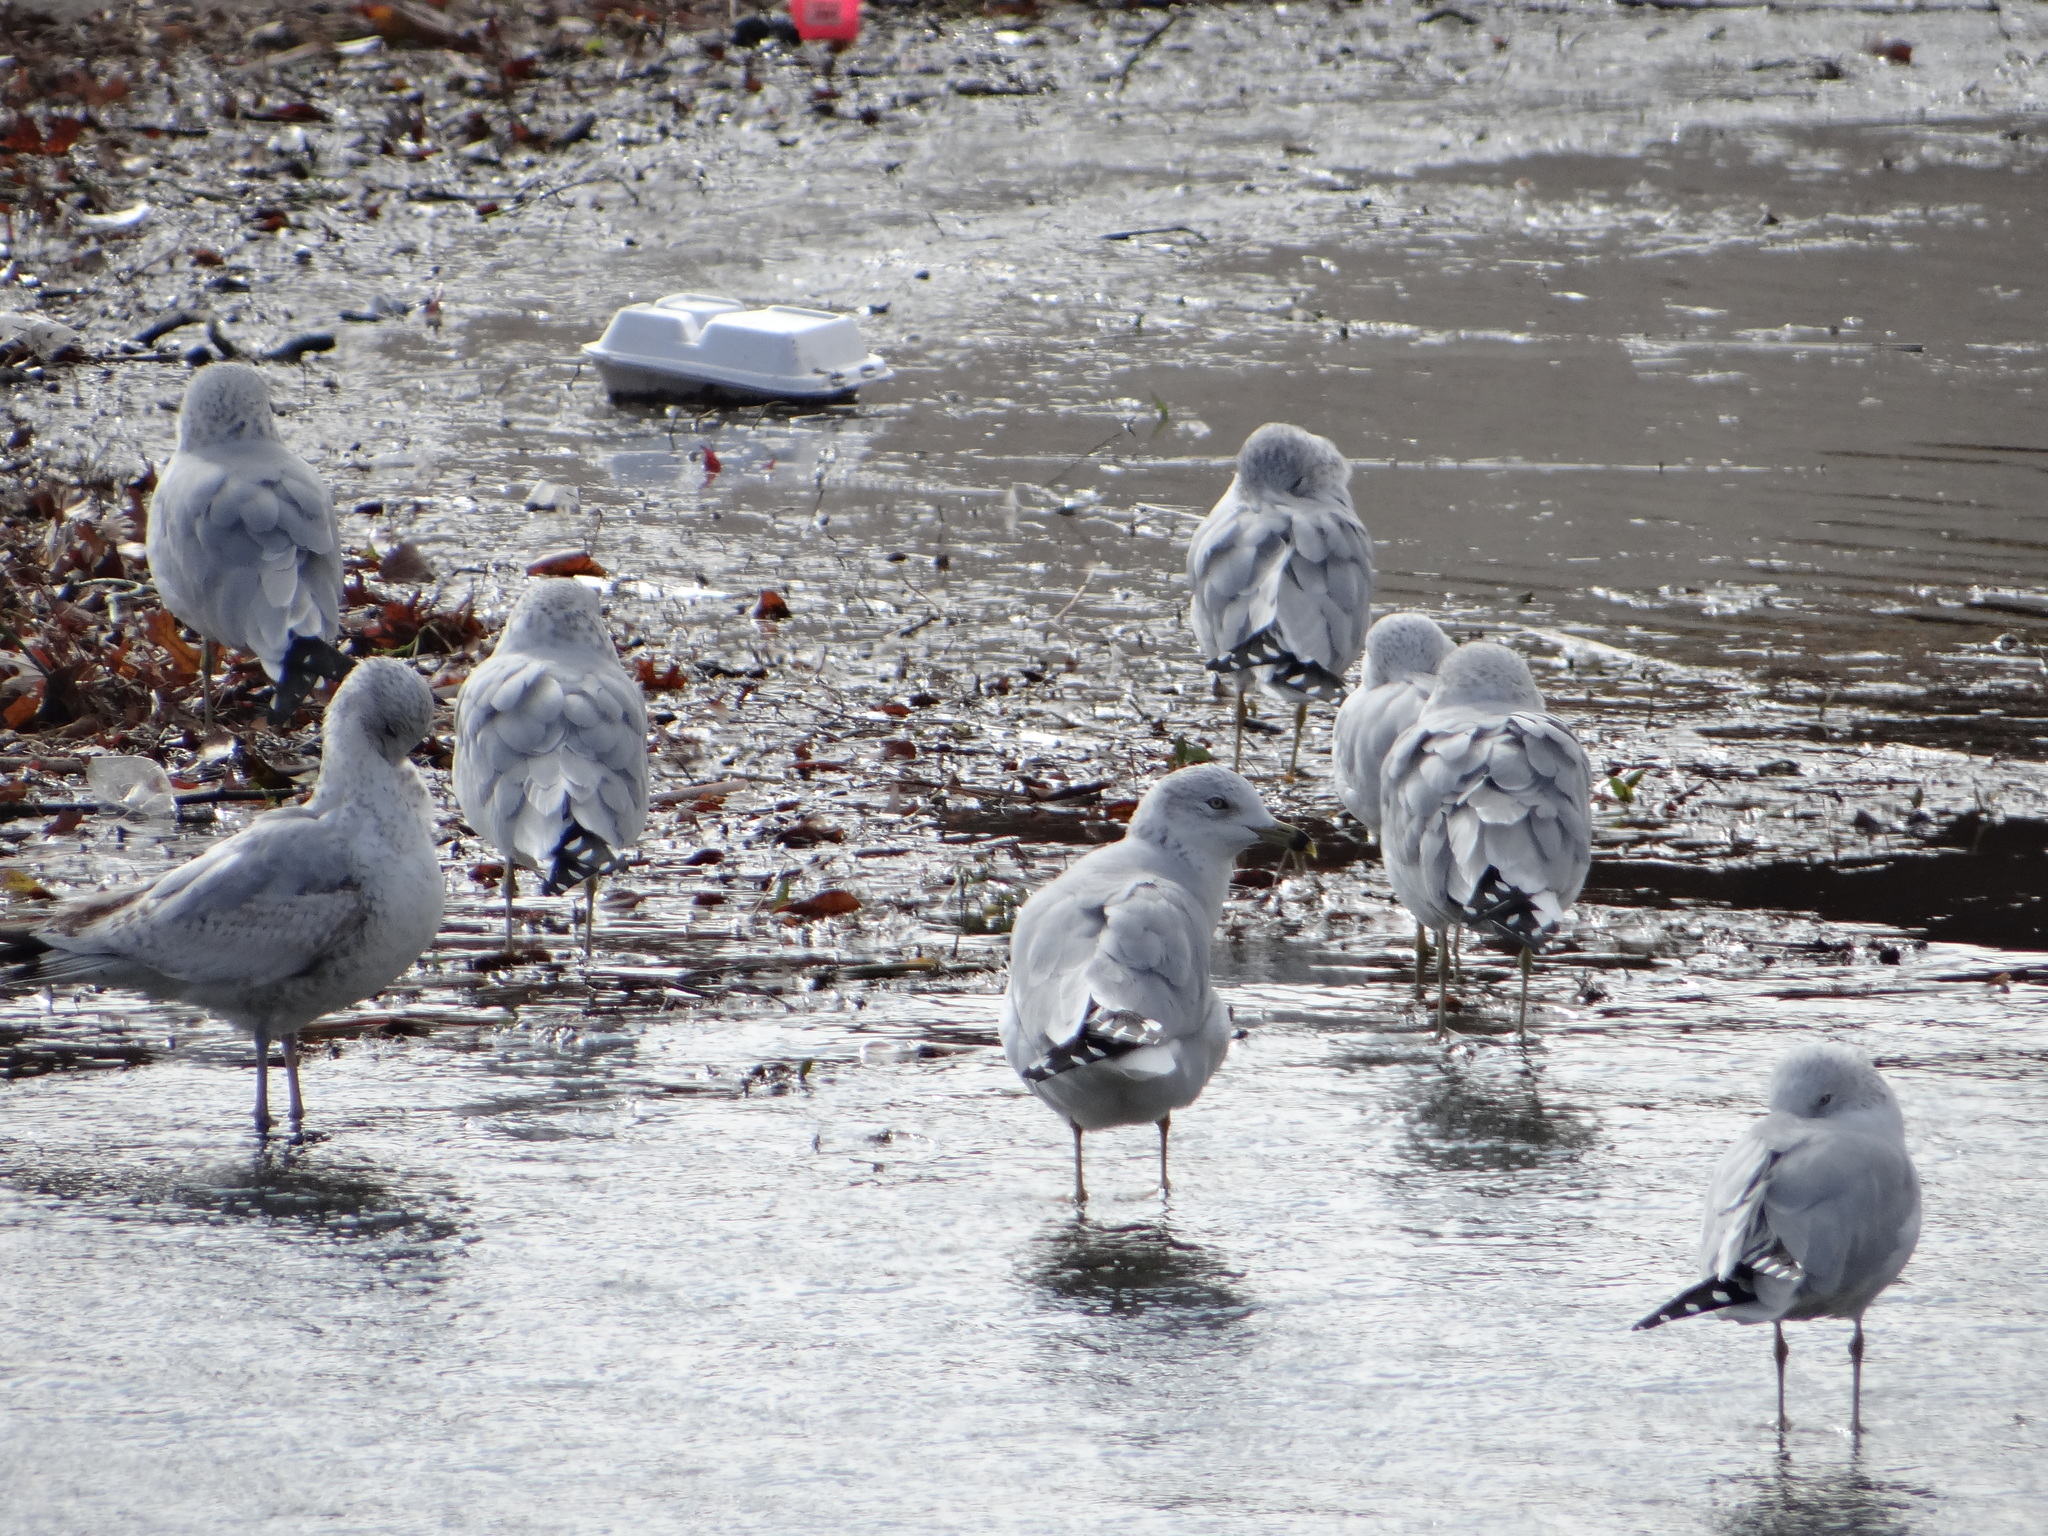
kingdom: Animalia
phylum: Chordata
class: Aves
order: Charadriiformes
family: Laridae
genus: Larus
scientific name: Larus delawarensis
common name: Ring-billed gull
